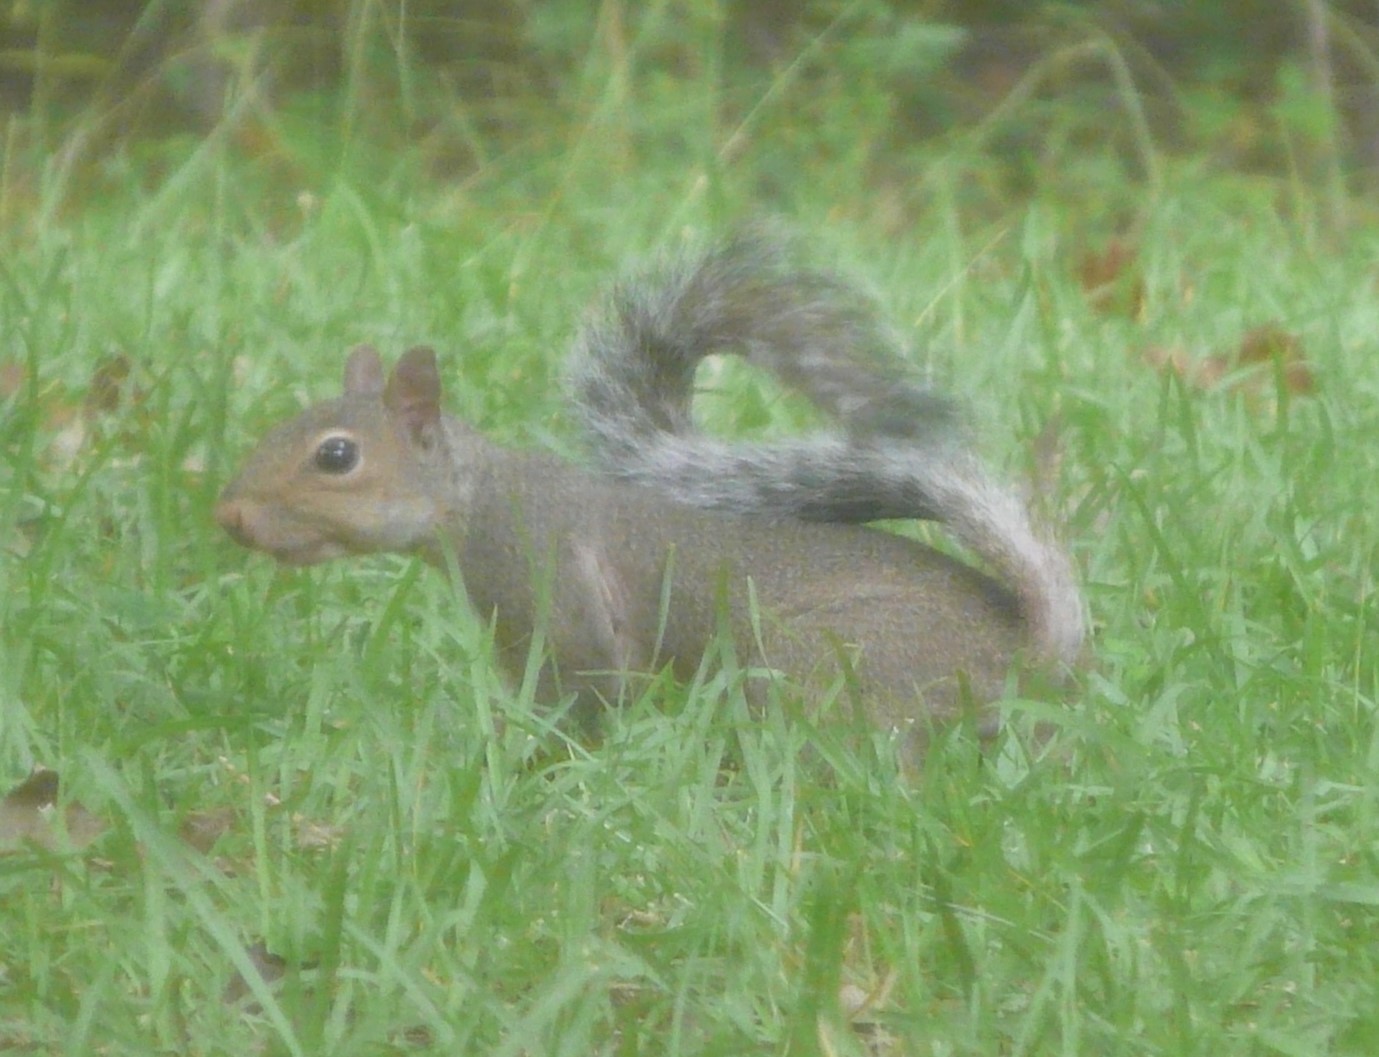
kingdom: Animalia
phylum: Chordata
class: Mammalia
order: Rodentia
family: Sciuridae
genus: Sciurus
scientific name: Sciurus carolinensis
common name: Eastern gray squirrel
